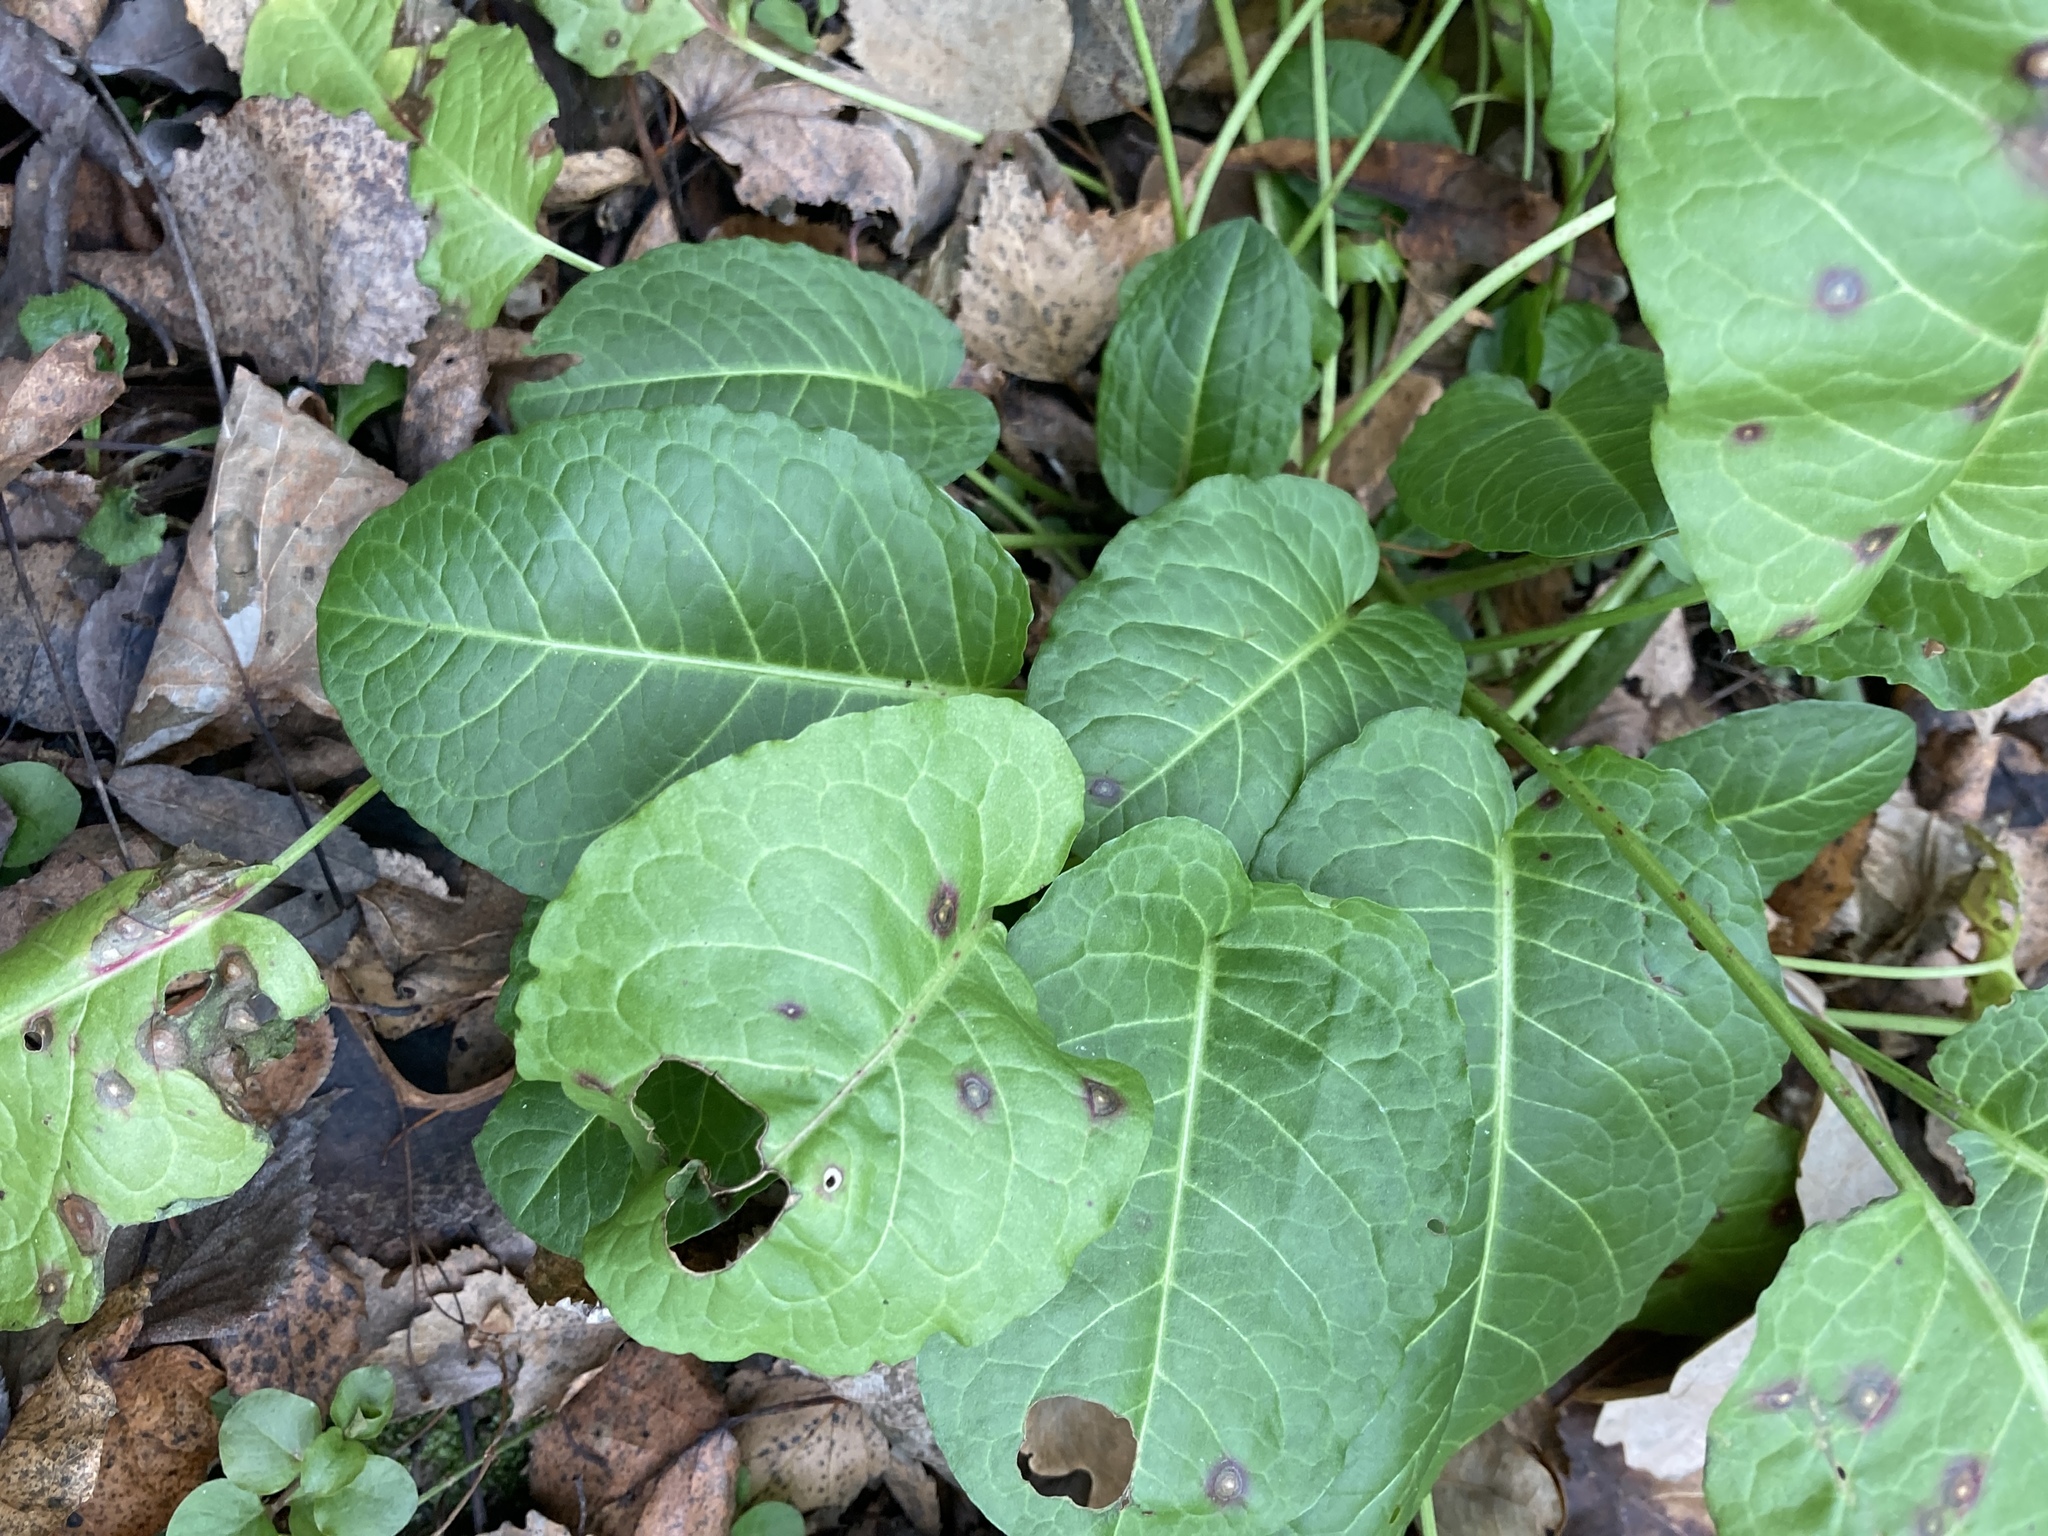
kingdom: Plantae
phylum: Tracheophyta
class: Magnoliopsida
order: Caryophyllales
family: Polygonaceae
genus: Rumex
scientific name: Rumex obtusifolius
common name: Bitter dock
